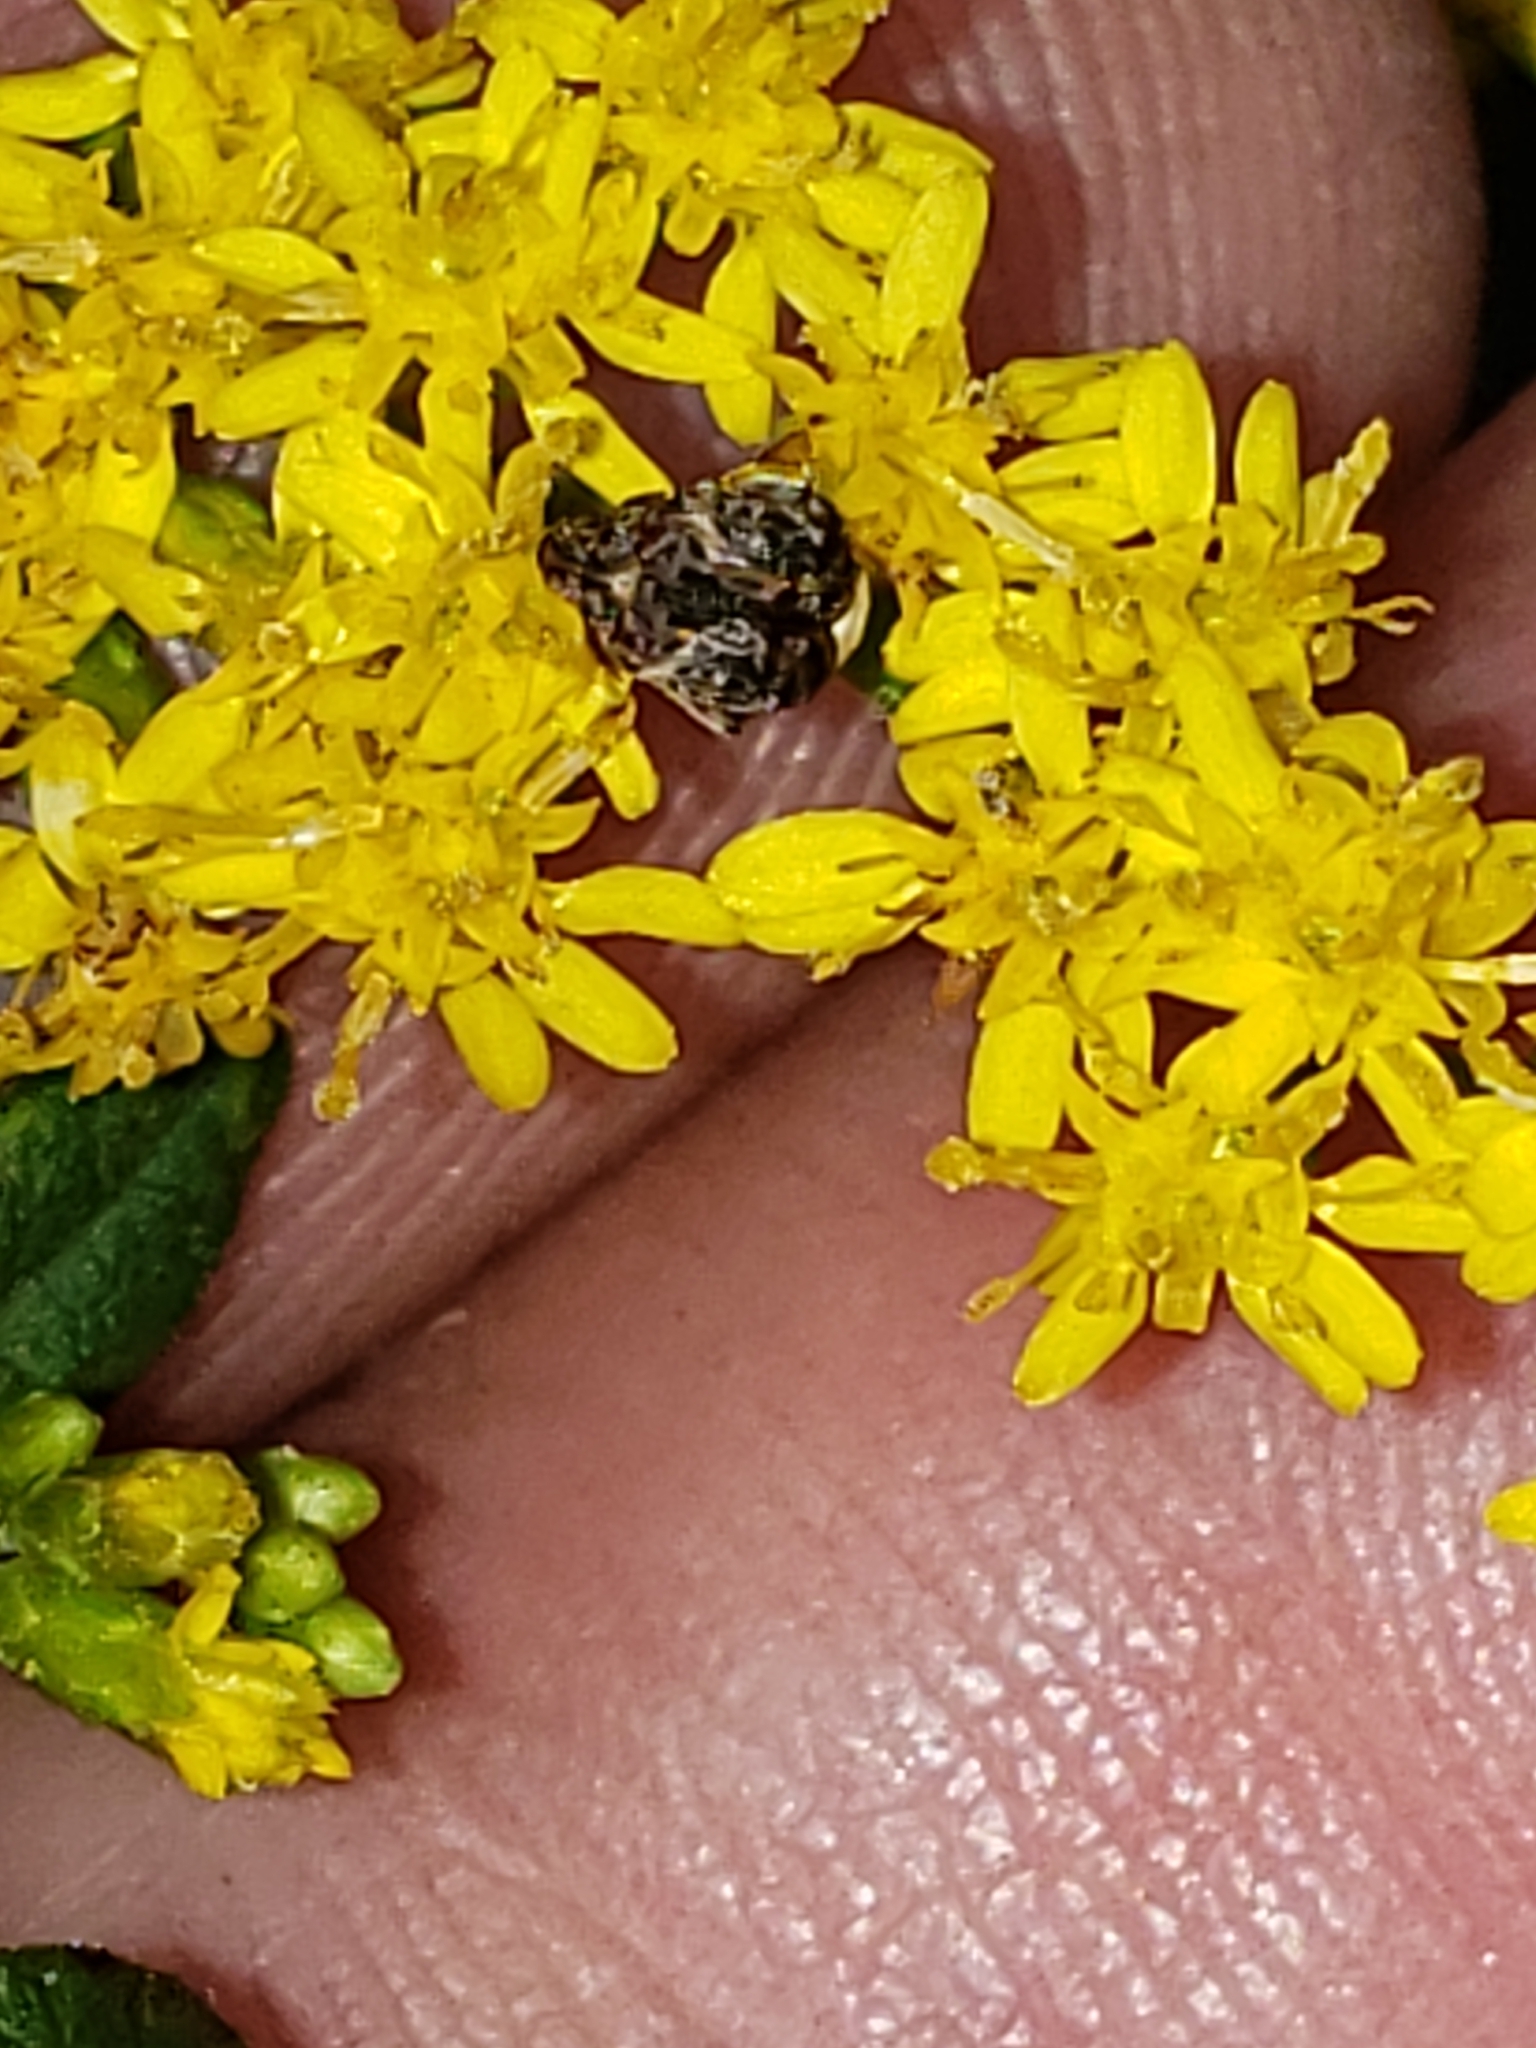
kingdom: Animalia
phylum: Arthropoda
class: Insecta
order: Coleoptera
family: Chrysomelidae
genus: Gibbobruchus
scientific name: Gibbobruchus mimus
